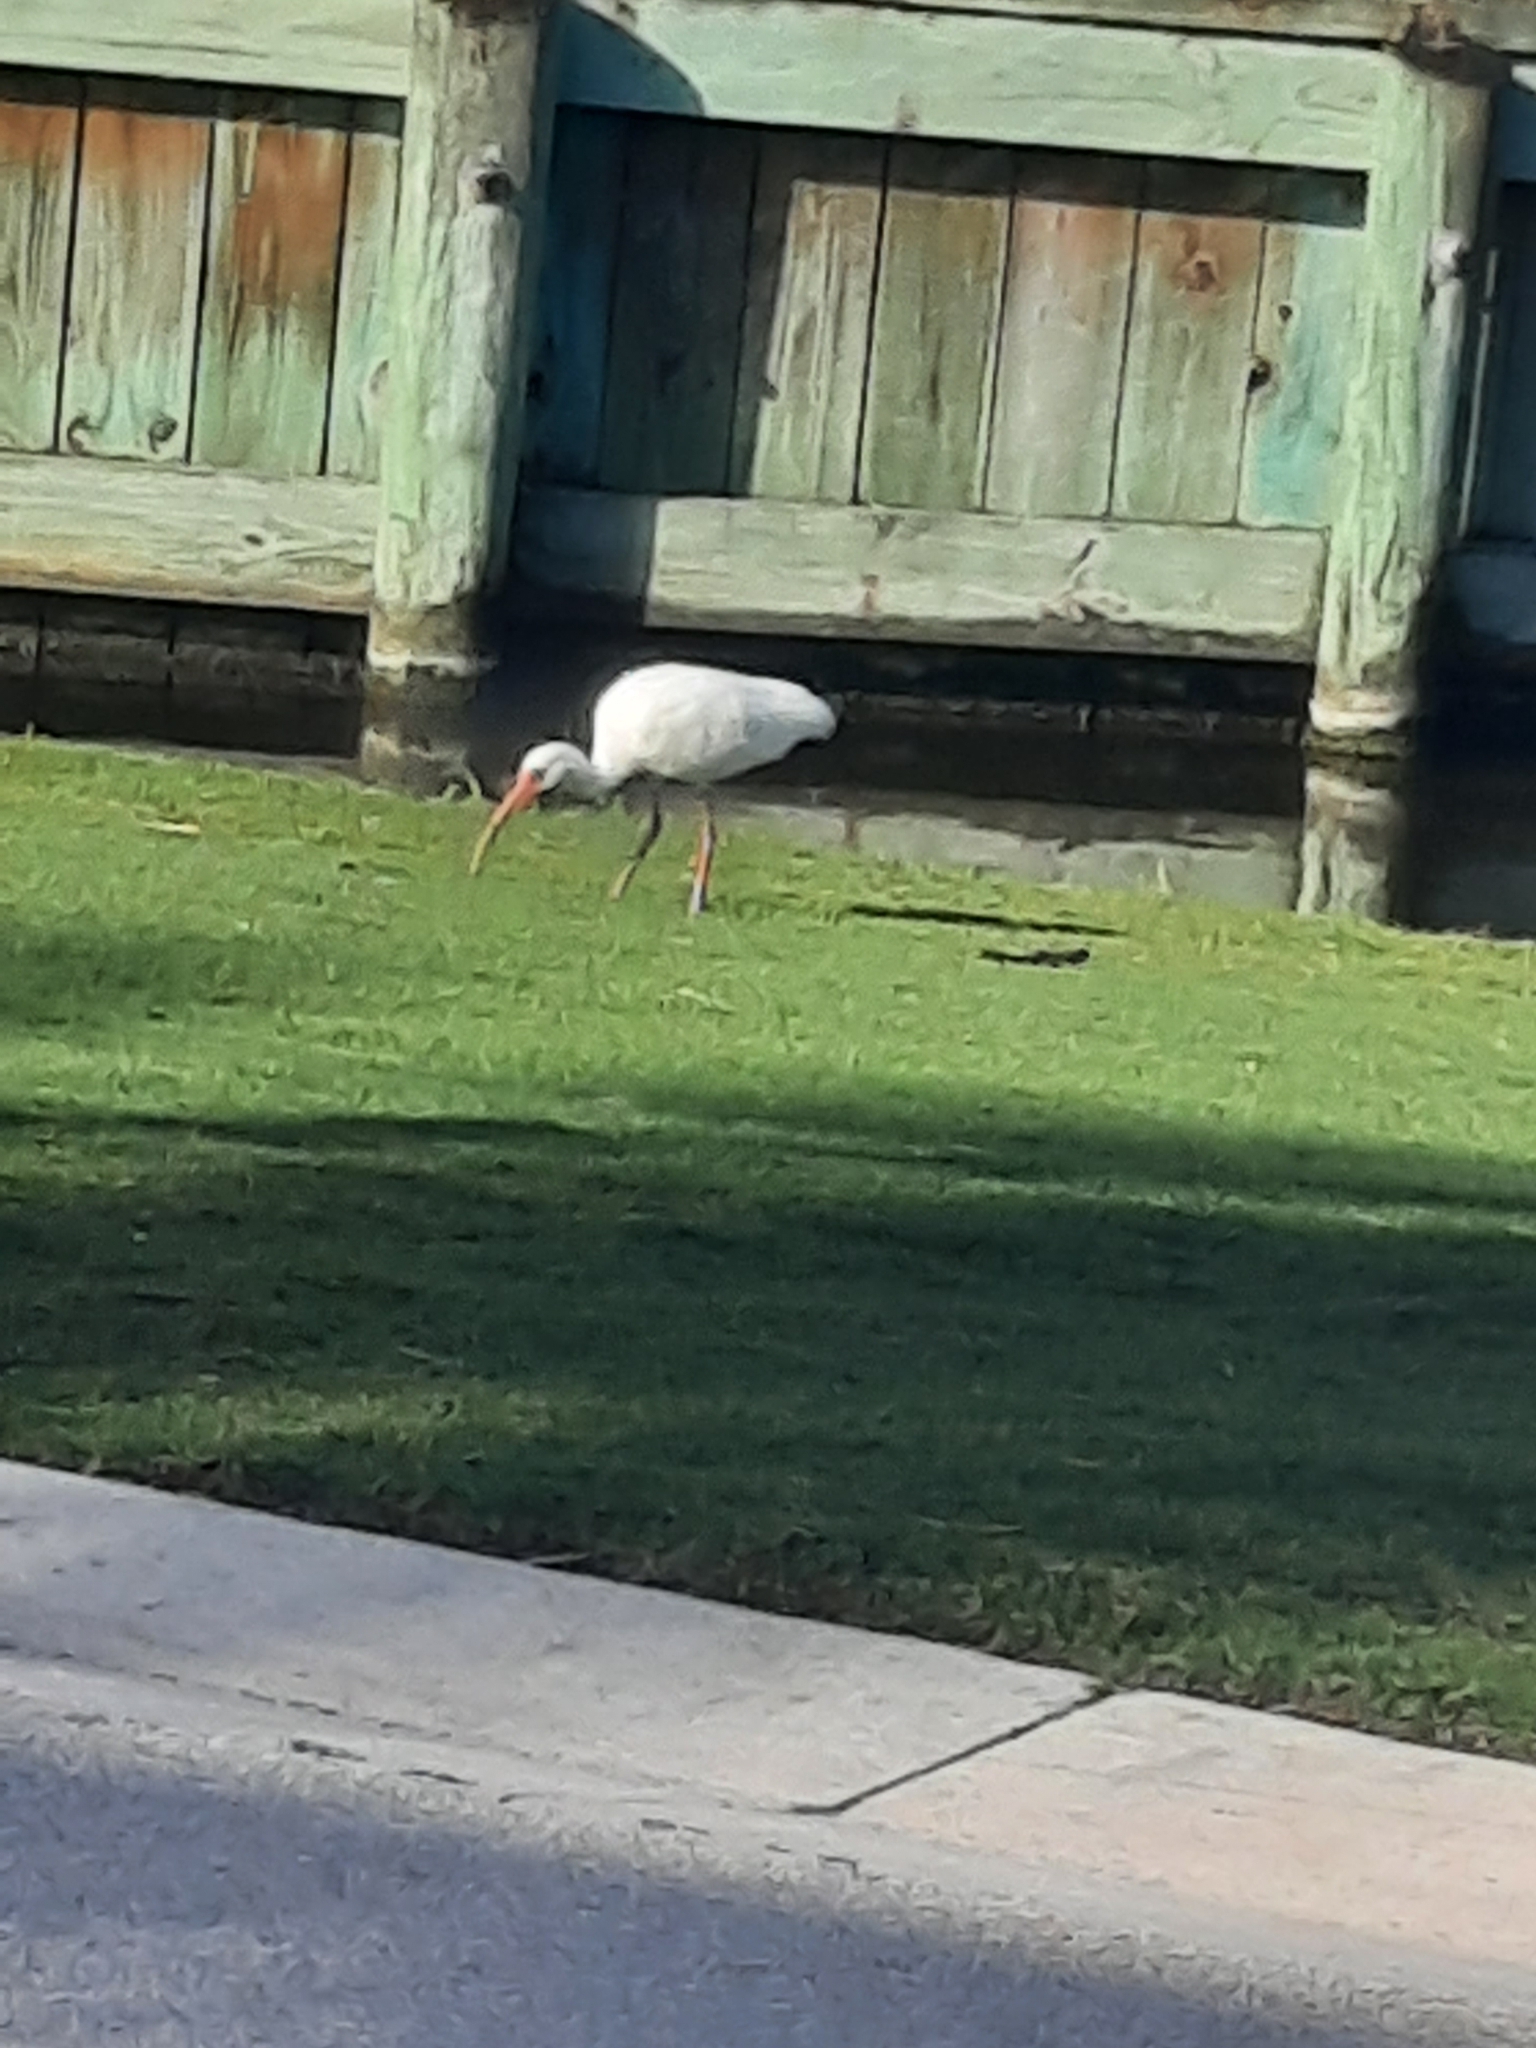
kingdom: Animalia
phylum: Chordata
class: Aves
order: Pelecaniformes
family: Threskiornithidae
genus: Eudocimus
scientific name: Eudocimus albus
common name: White ibis
